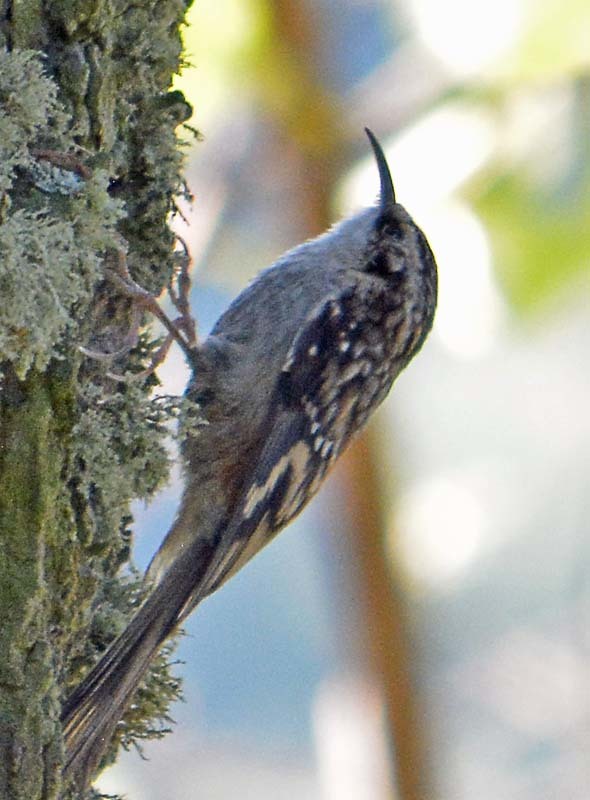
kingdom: Animalia
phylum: Chordata
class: Aves
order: Passeriformes
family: Certhiidae
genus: Certhia
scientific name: Certhia americana
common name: Brown creeper
